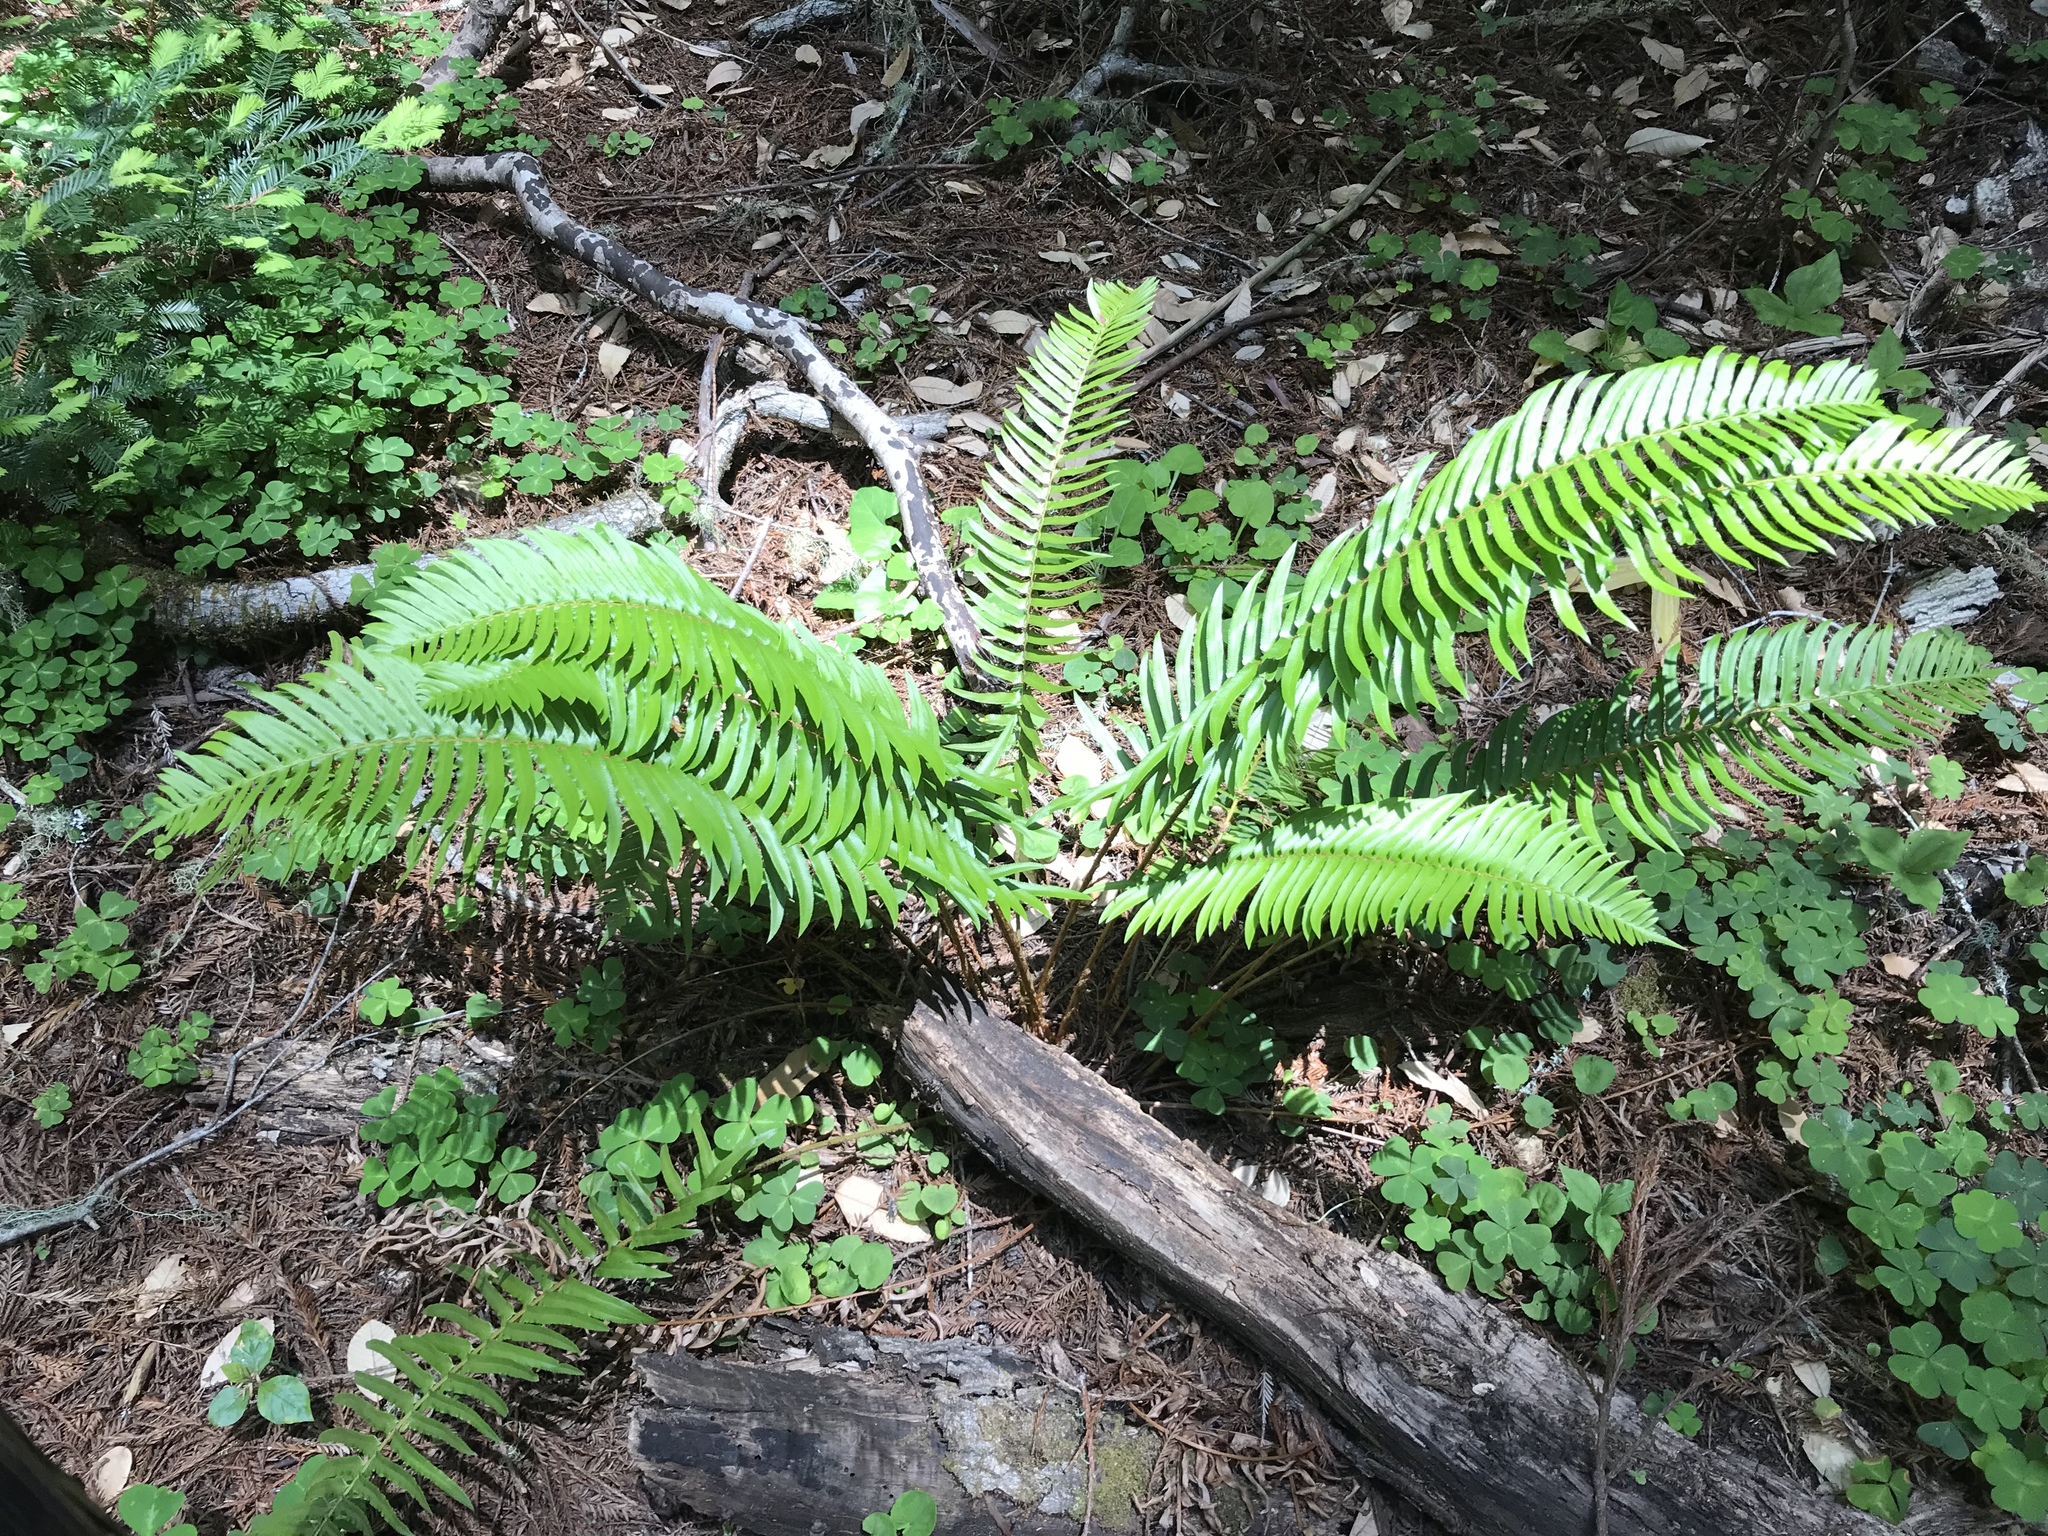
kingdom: Plantae
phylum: Tracheophyta
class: Polypodiopsida
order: Polypodiales
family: Dryopteridaceae
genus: Polystichum
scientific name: Polystichum munitum
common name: Western sword-fern
